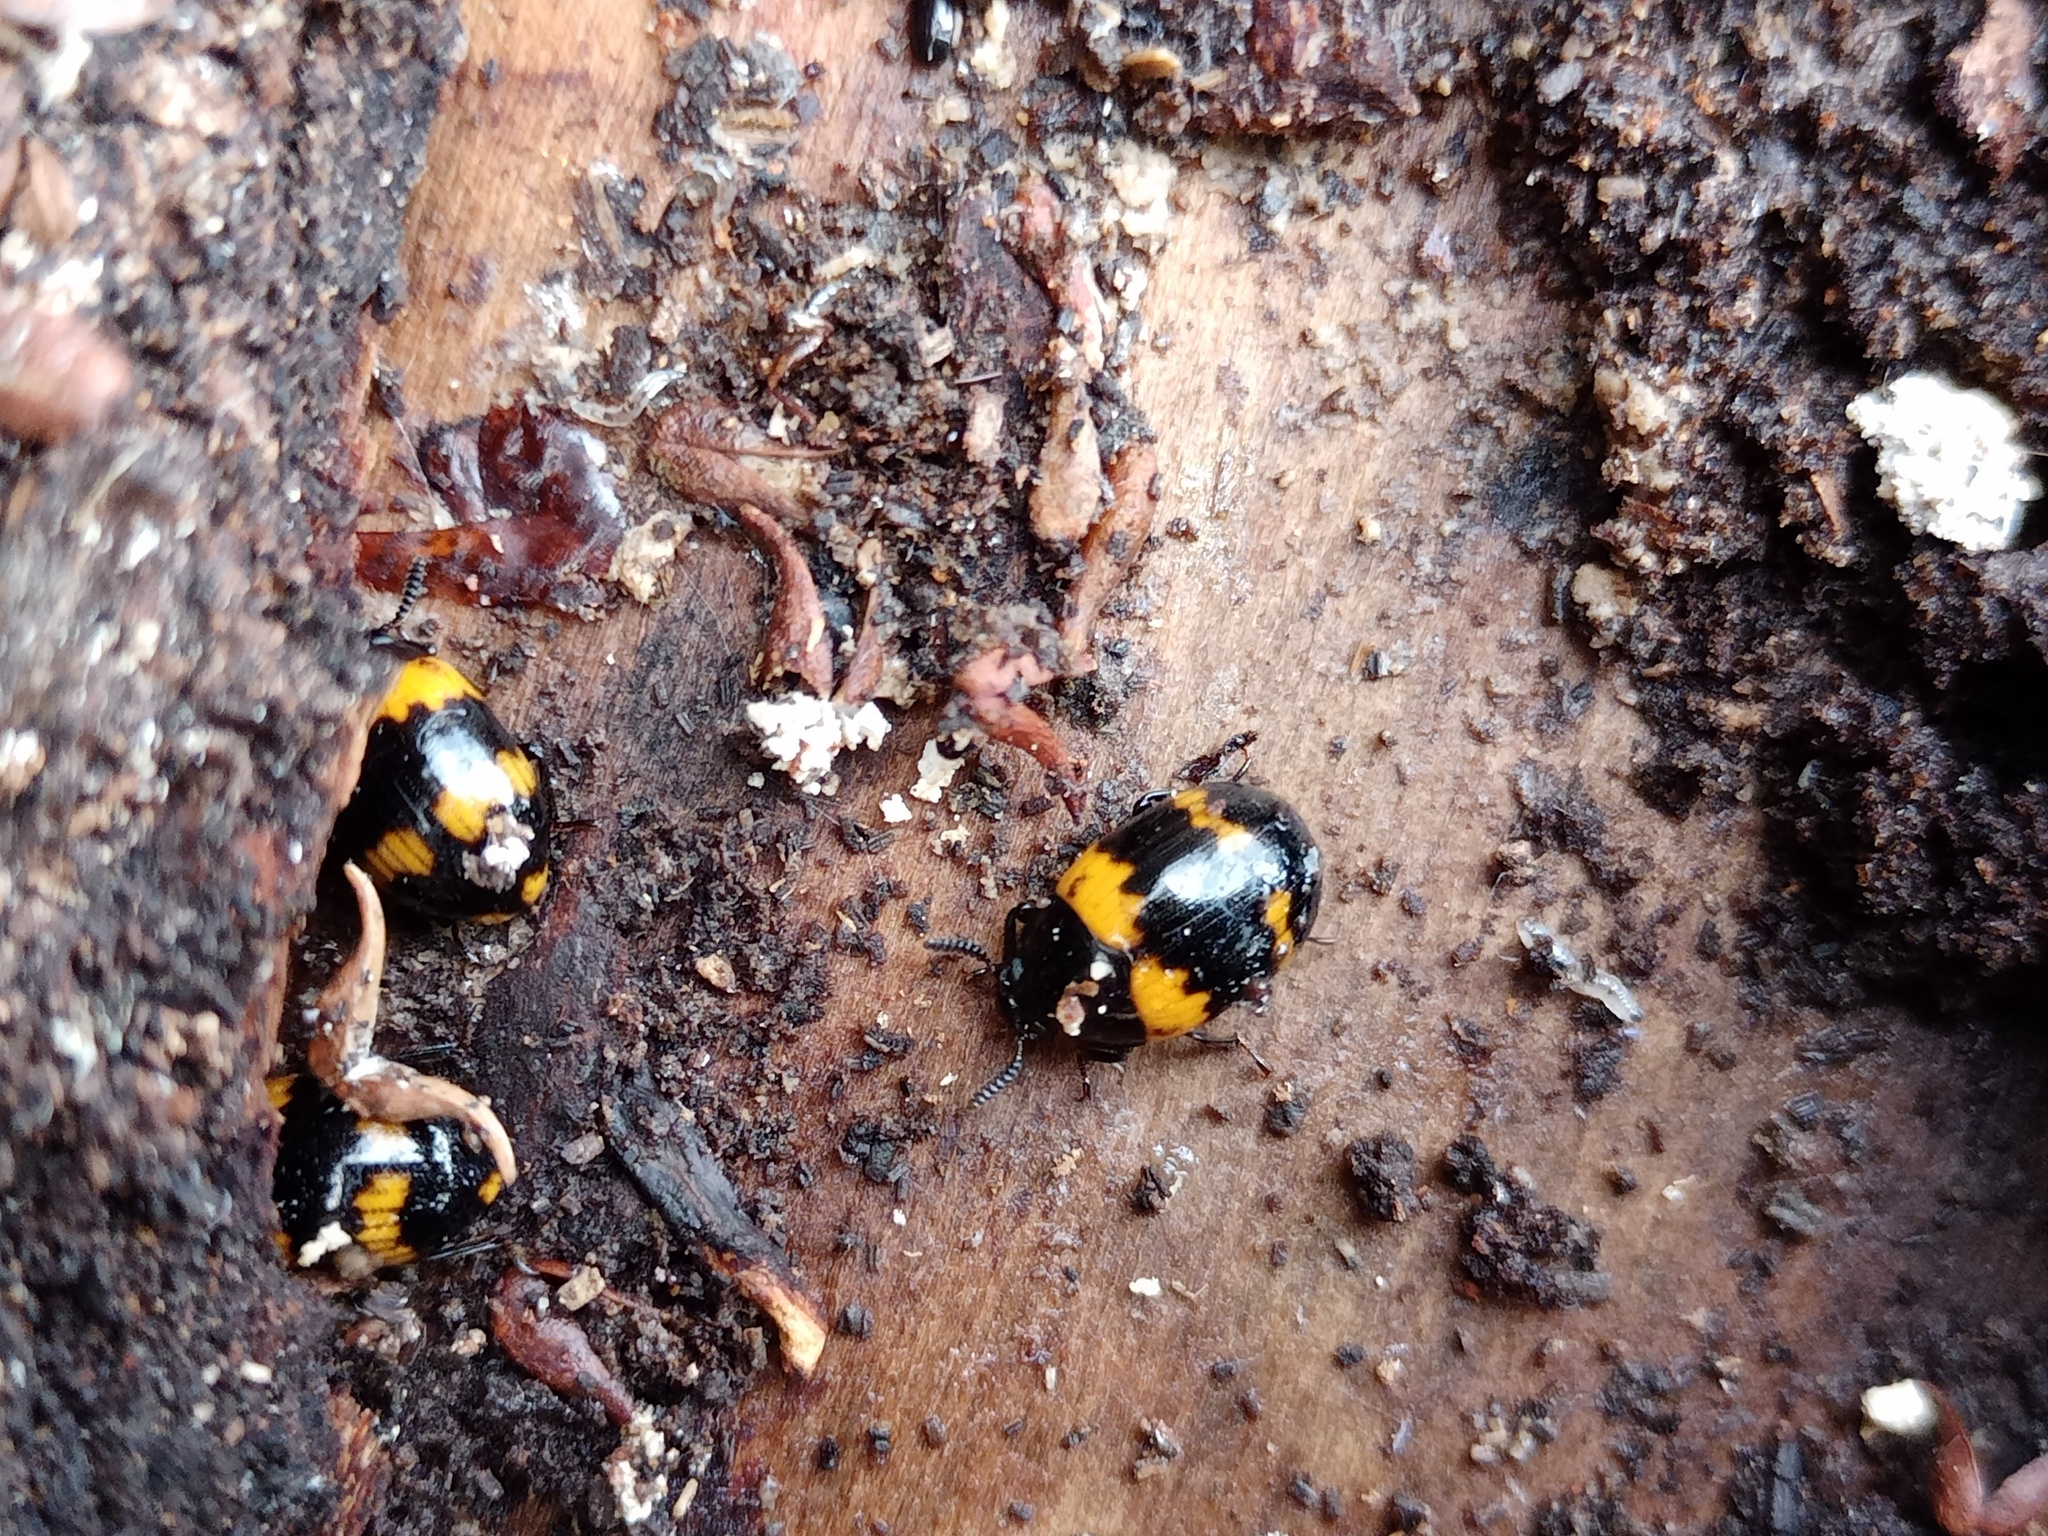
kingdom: Animalia
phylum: Arthropoda
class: Insecta
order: Coleoptera
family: Tenebrionidae
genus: Diaperis
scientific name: Diaperis boleti
